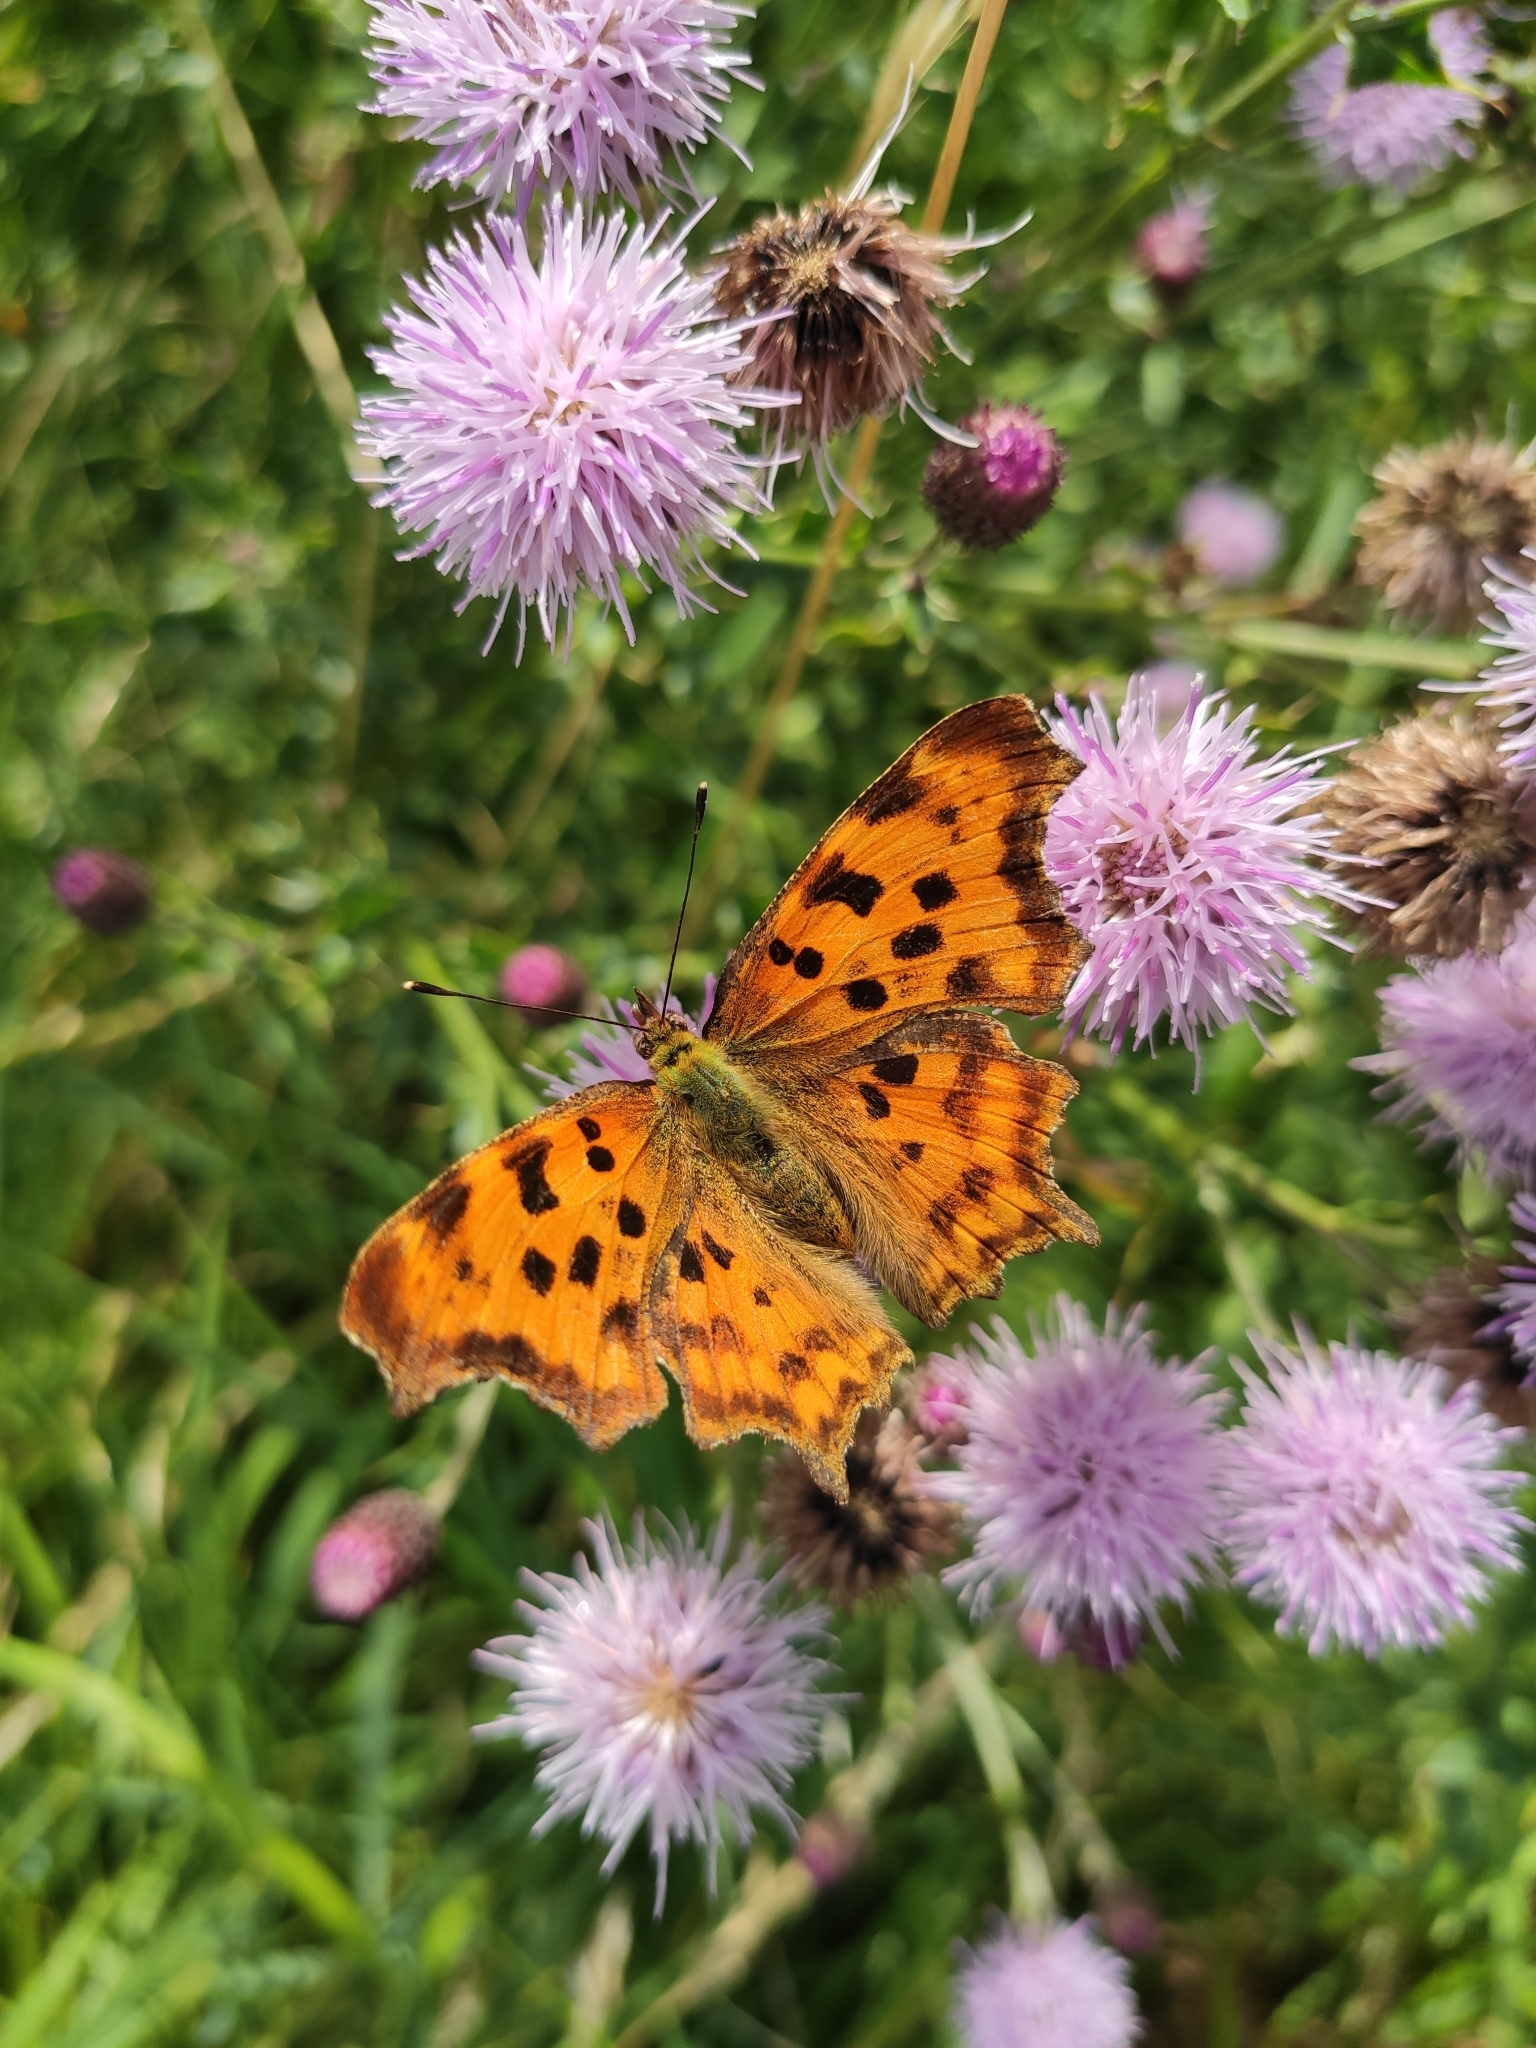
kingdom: Animalia
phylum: Arthropoda
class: Insecta
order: Lepidoptera
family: Nymphalidae
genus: Polygonia
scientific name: Polygonia c-album
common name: Comma
